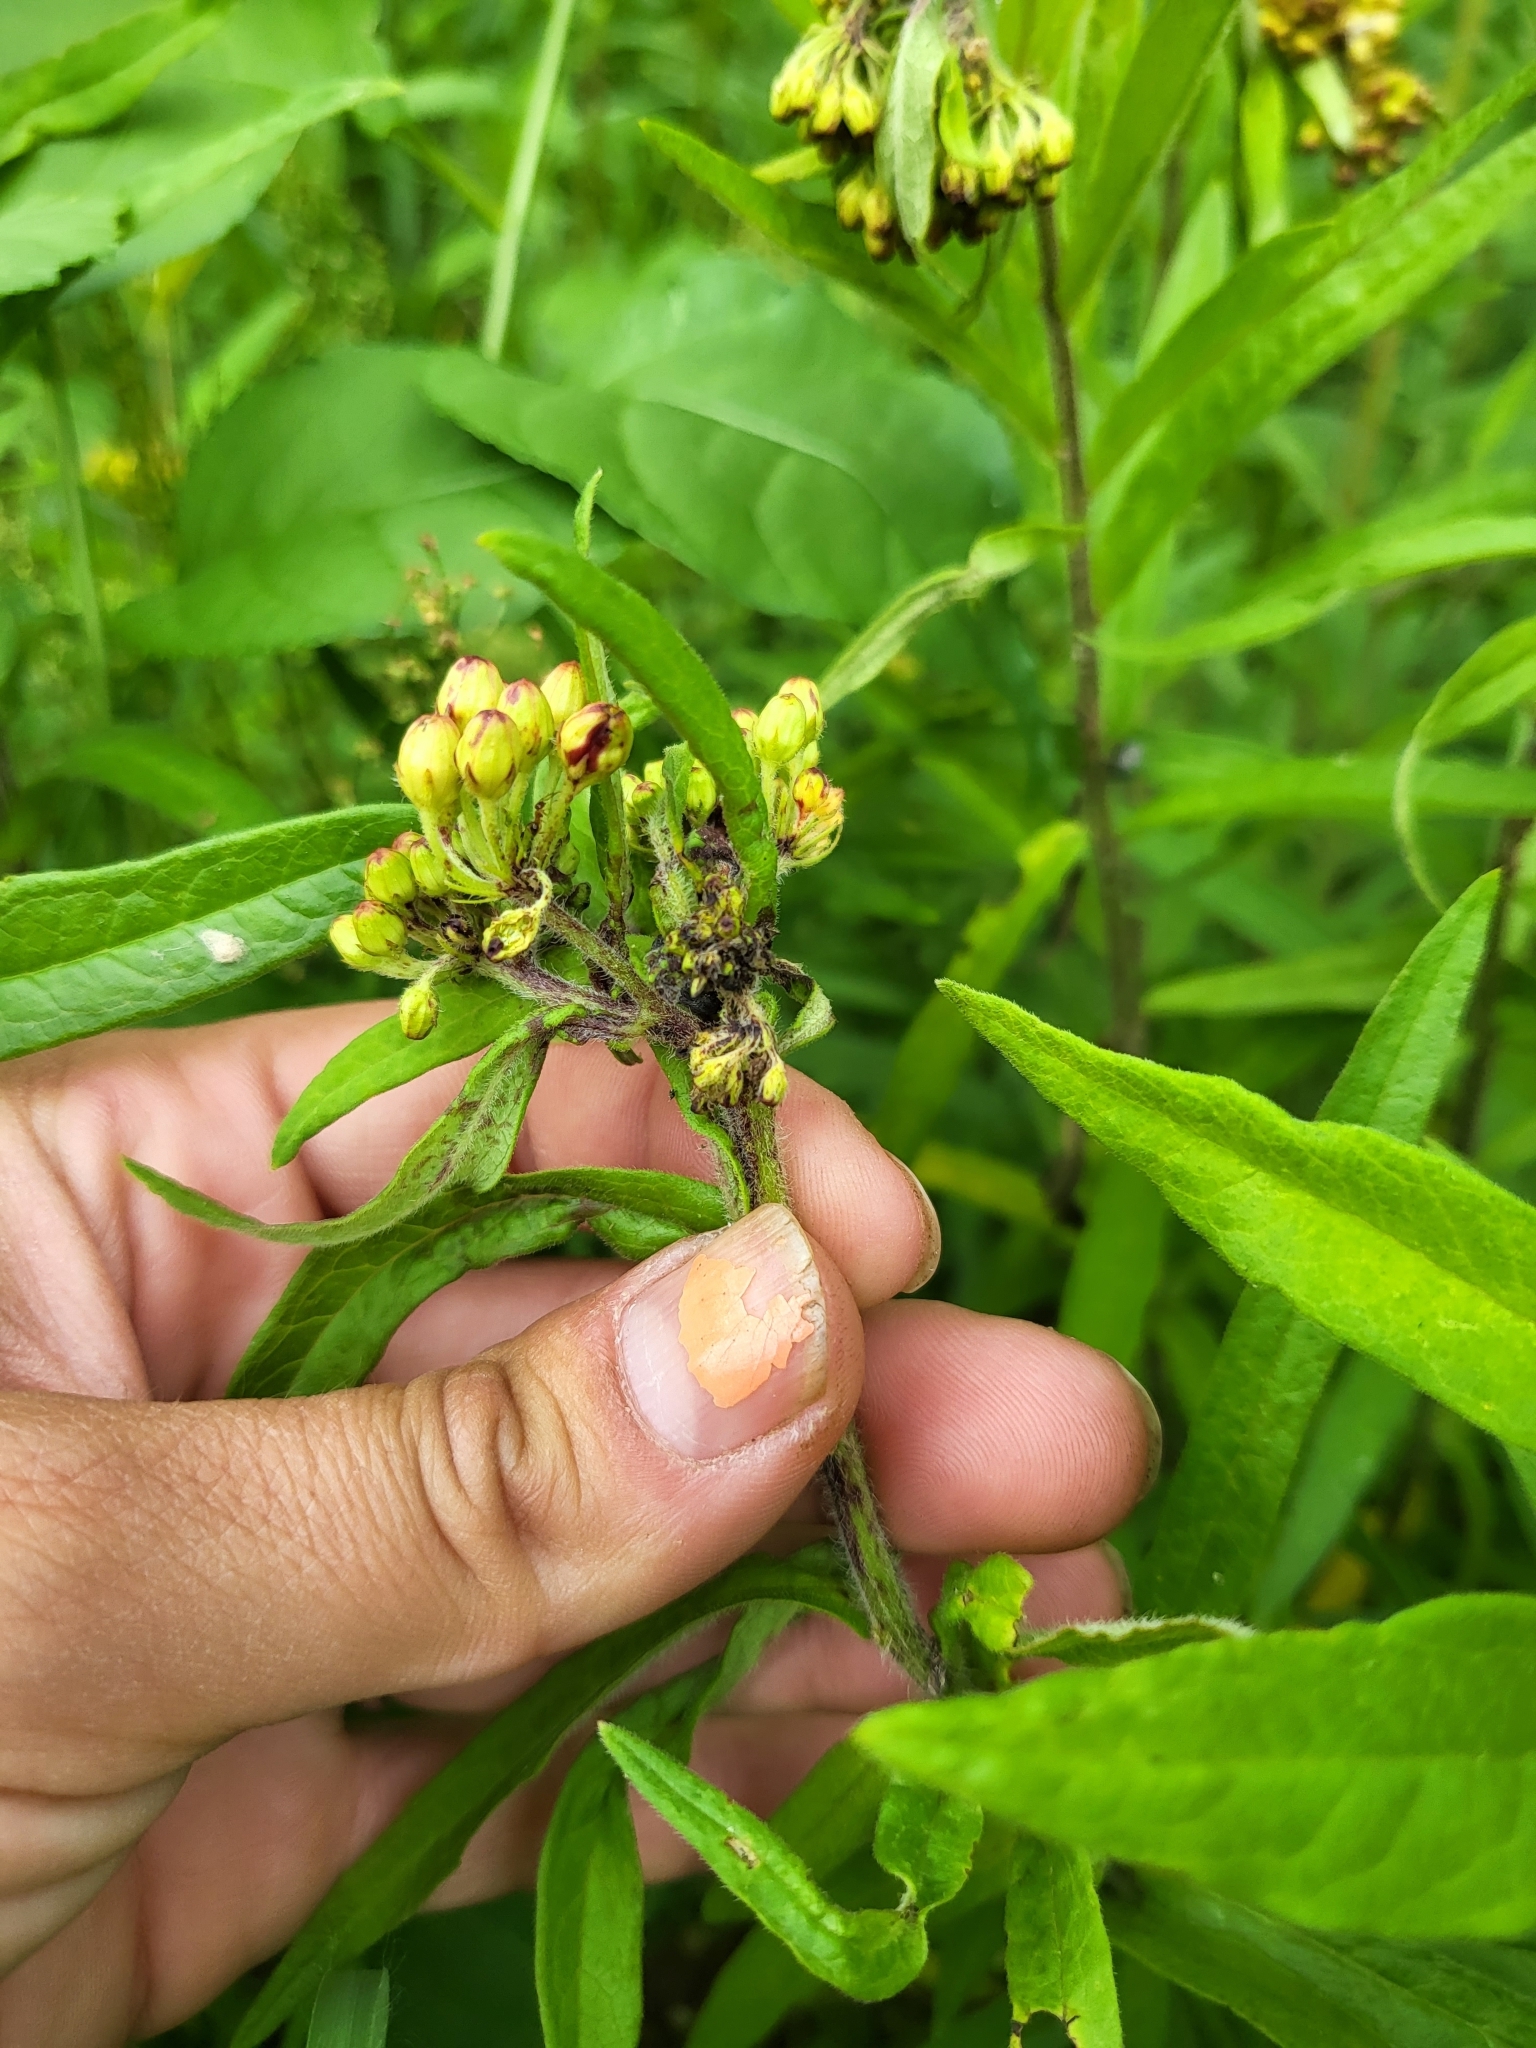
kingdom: Plantae
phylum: Tracheophyta
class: Magnoliopsida
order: Gentianales
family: Apocynaceae
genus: Asclepias
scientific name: Asclepias tuberosa
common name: Butterfly milkweed
